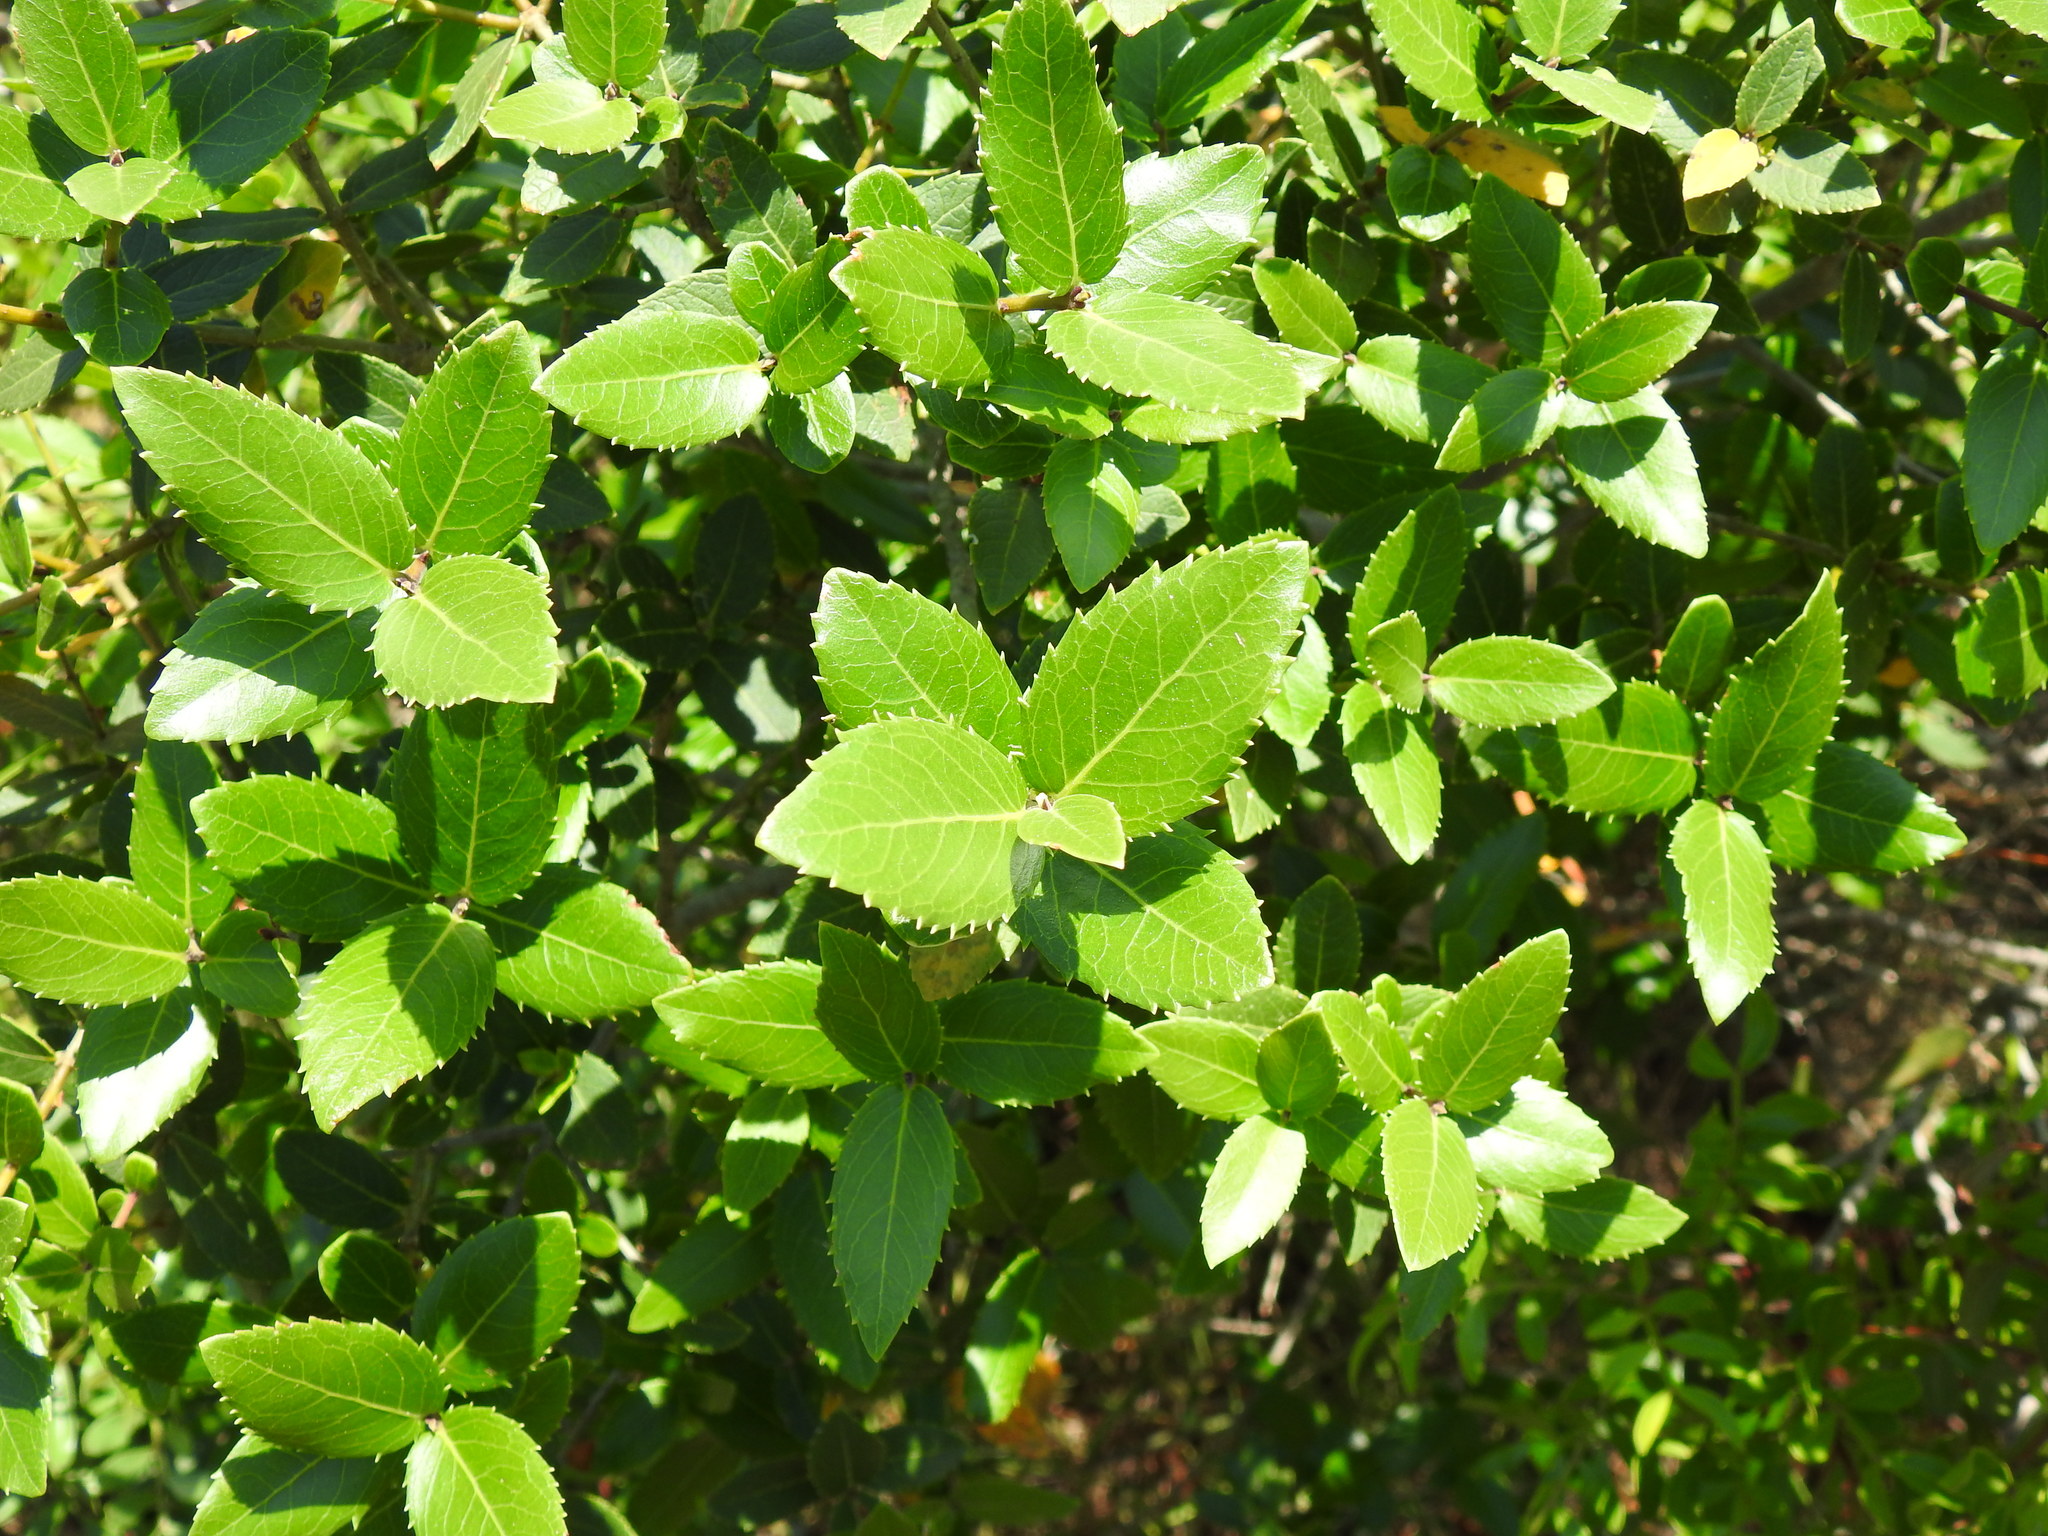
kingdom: Plantae
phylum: Tracheophyta
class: Magnoliopsida
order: Lamiales
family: Oleaceae
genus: Phillyrea
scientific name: Phillyrea latifolia
